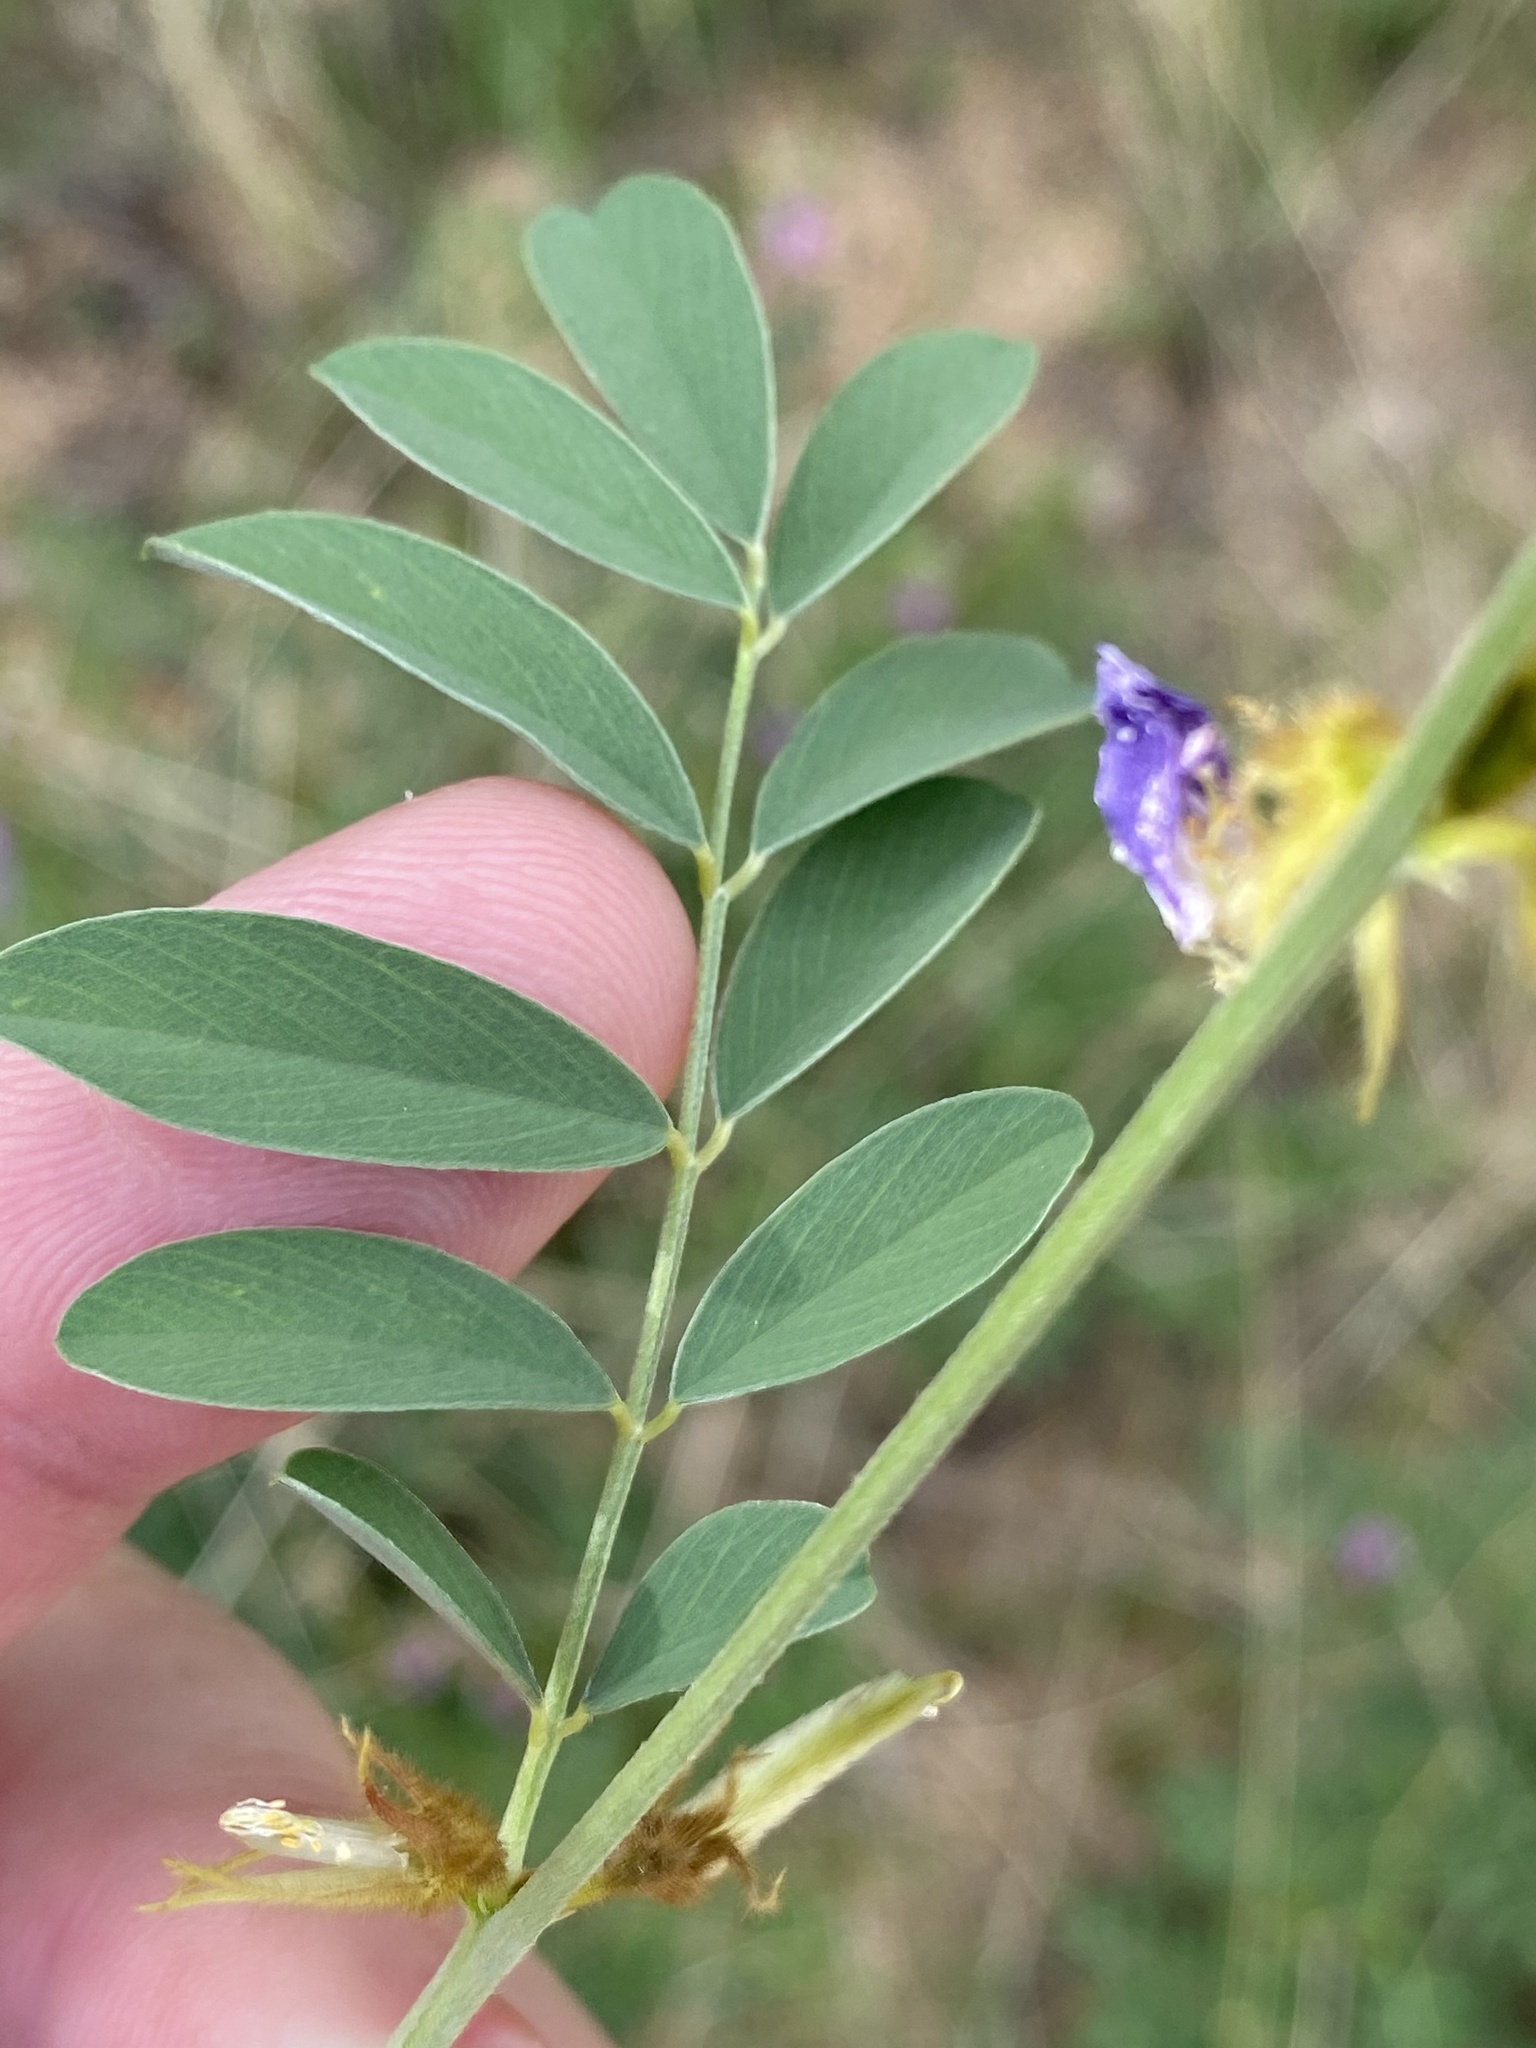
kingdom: Plantae
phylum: Tracheophyta
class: Magnoliopsida
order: Fabales
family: Fabaceae
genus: Tephrosia
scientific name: Tephrosia villosa
